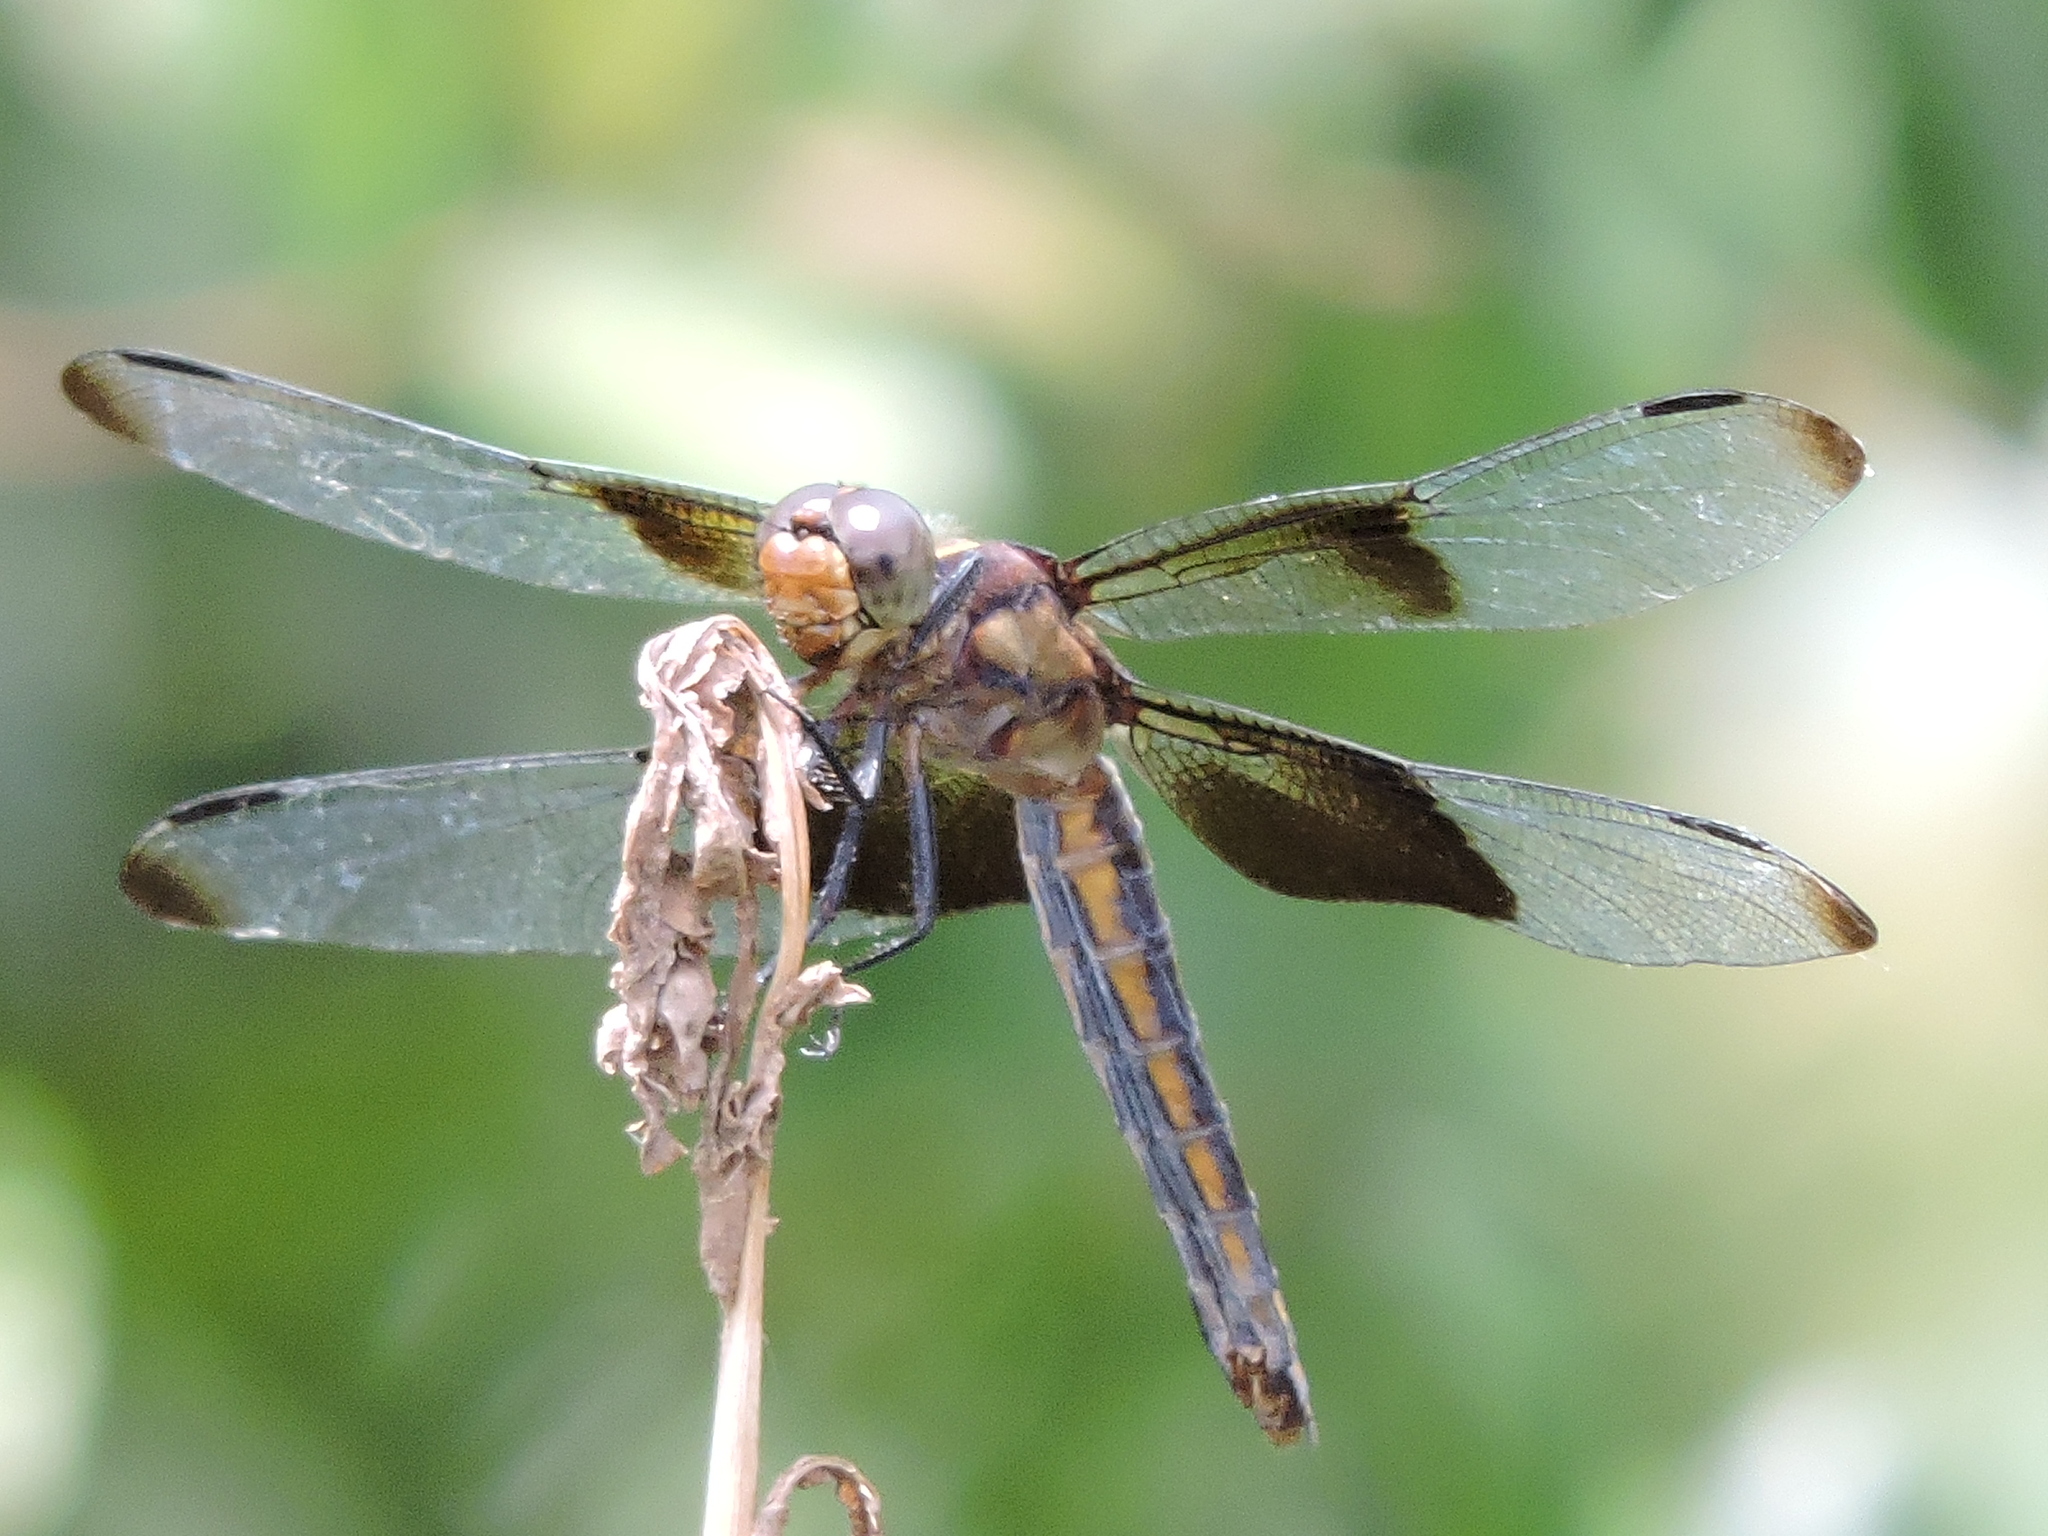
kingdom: Animalia
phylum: Arthropoda
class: Insecta
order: Odonata
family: Libellulidae
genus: Libellula
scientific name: Libellula luctuosa
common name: Widow skimmer
